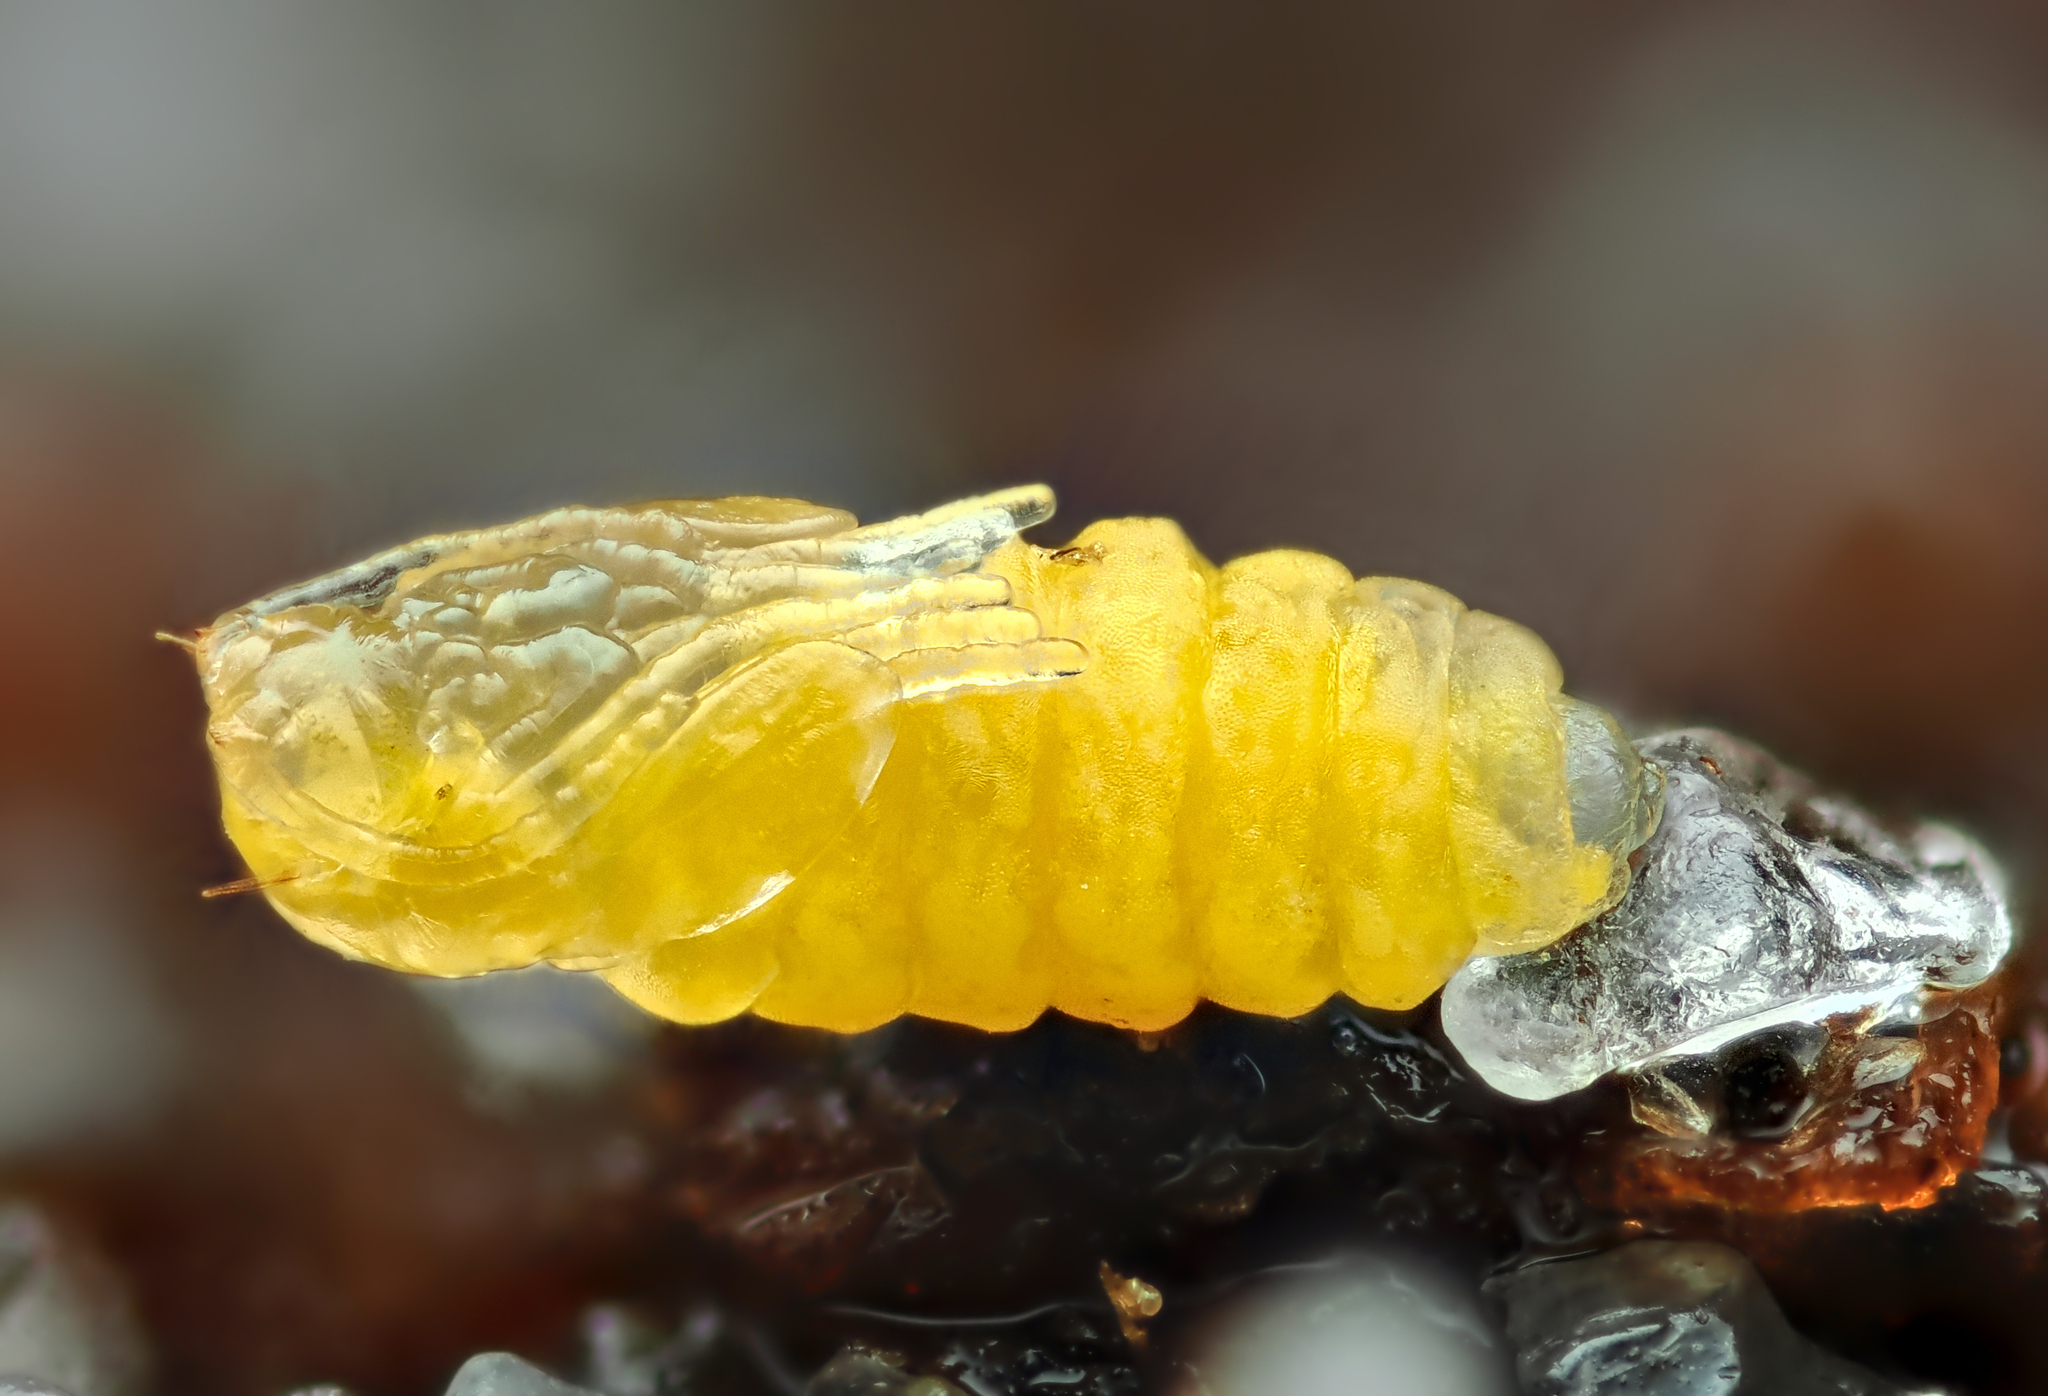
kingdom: Animalia
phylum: Arthropoda
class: Insecta
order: Diptera
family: Cecidomyiidae
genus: Contarinia
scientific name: Contarinia pseudotsugae
